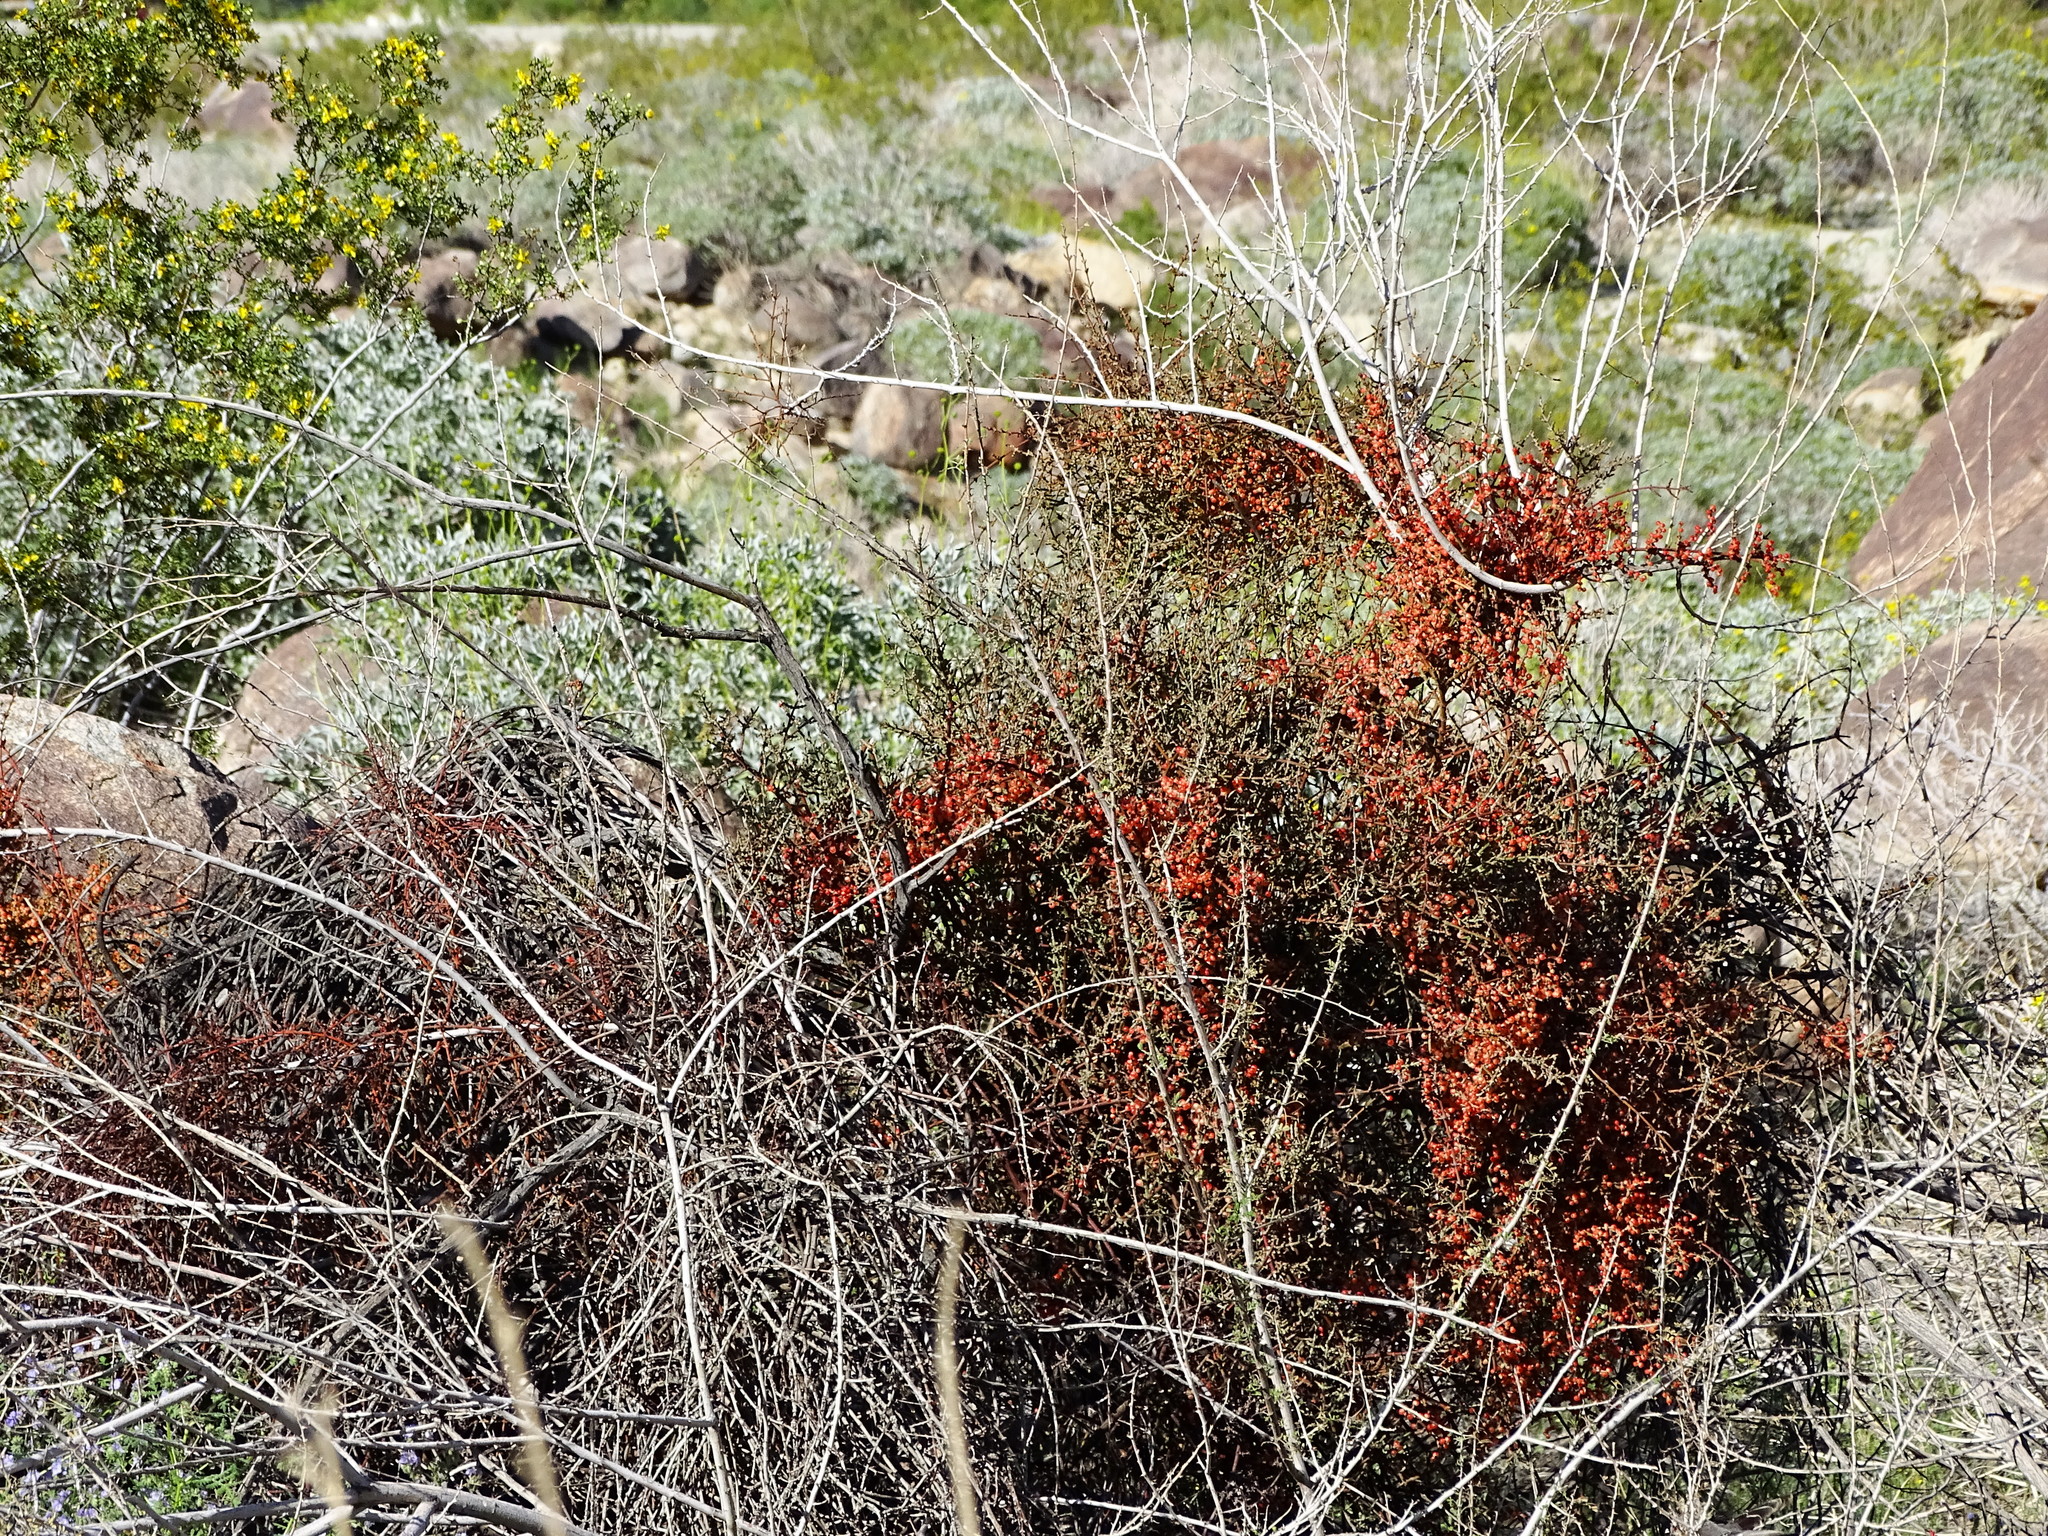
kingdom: Plantae
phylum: Tracheophyta
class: Magnoliopsida
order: Santalales
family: Viscaceae
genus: Phoradendron
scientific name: Phoradendron californicum
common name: Acacia mistletoe
